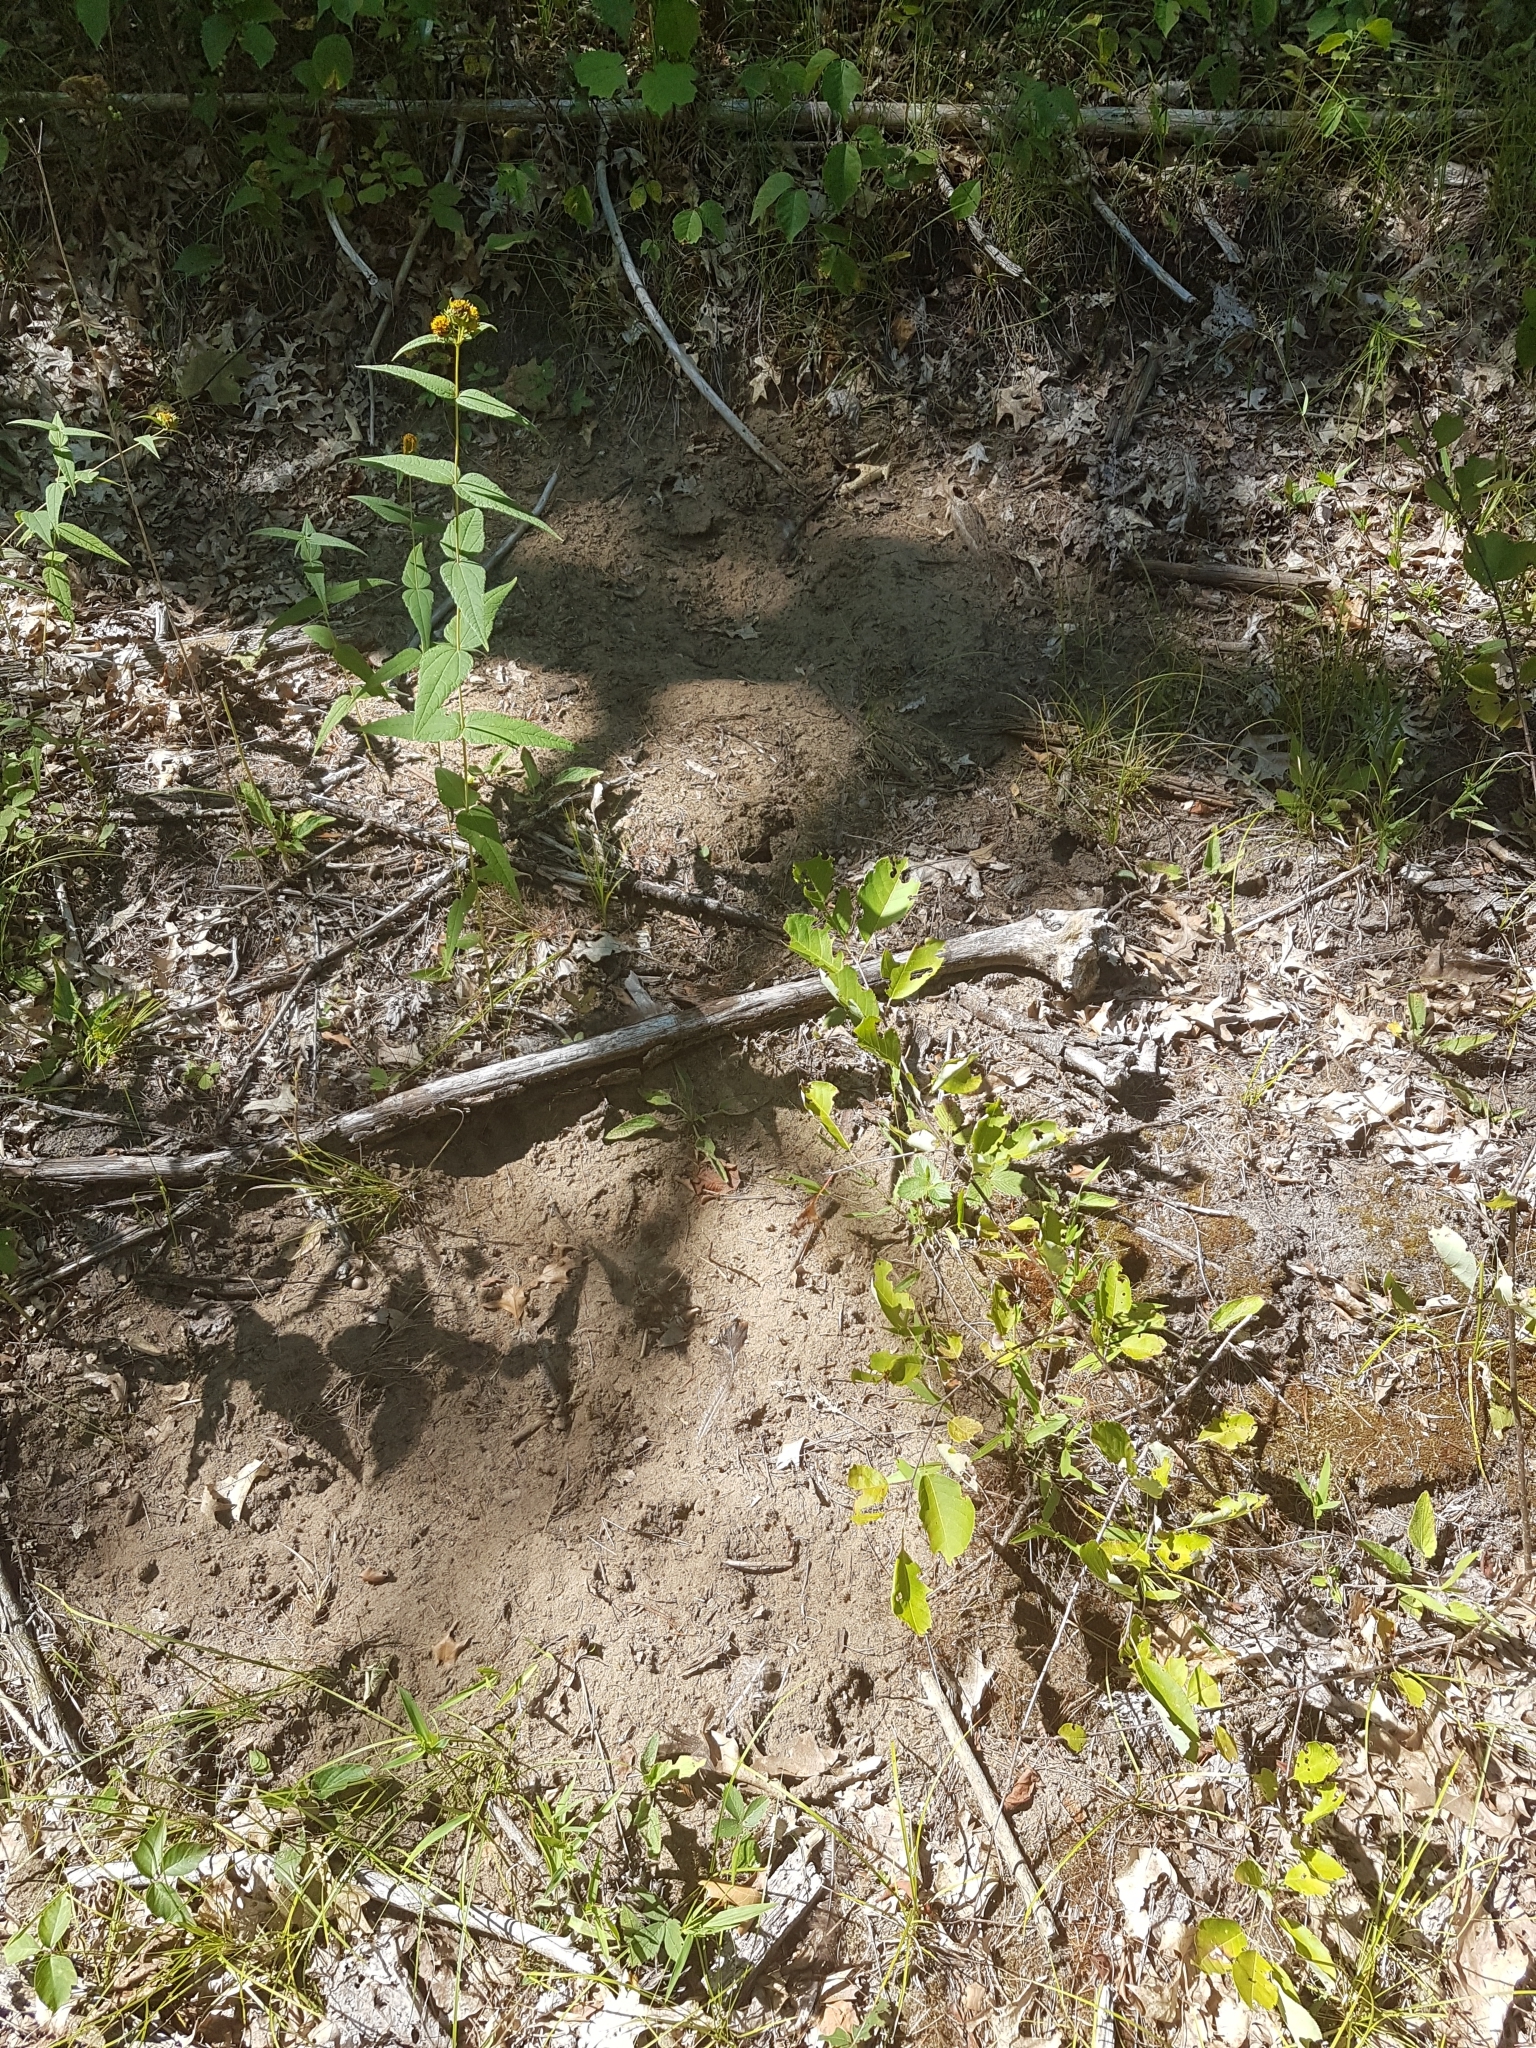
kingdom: Animalia
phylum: Chordata
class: Aves
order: Galliformes
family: Phasianidae
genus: Meleagris
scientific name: Meleagris gallopavo
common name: Wild turkey
